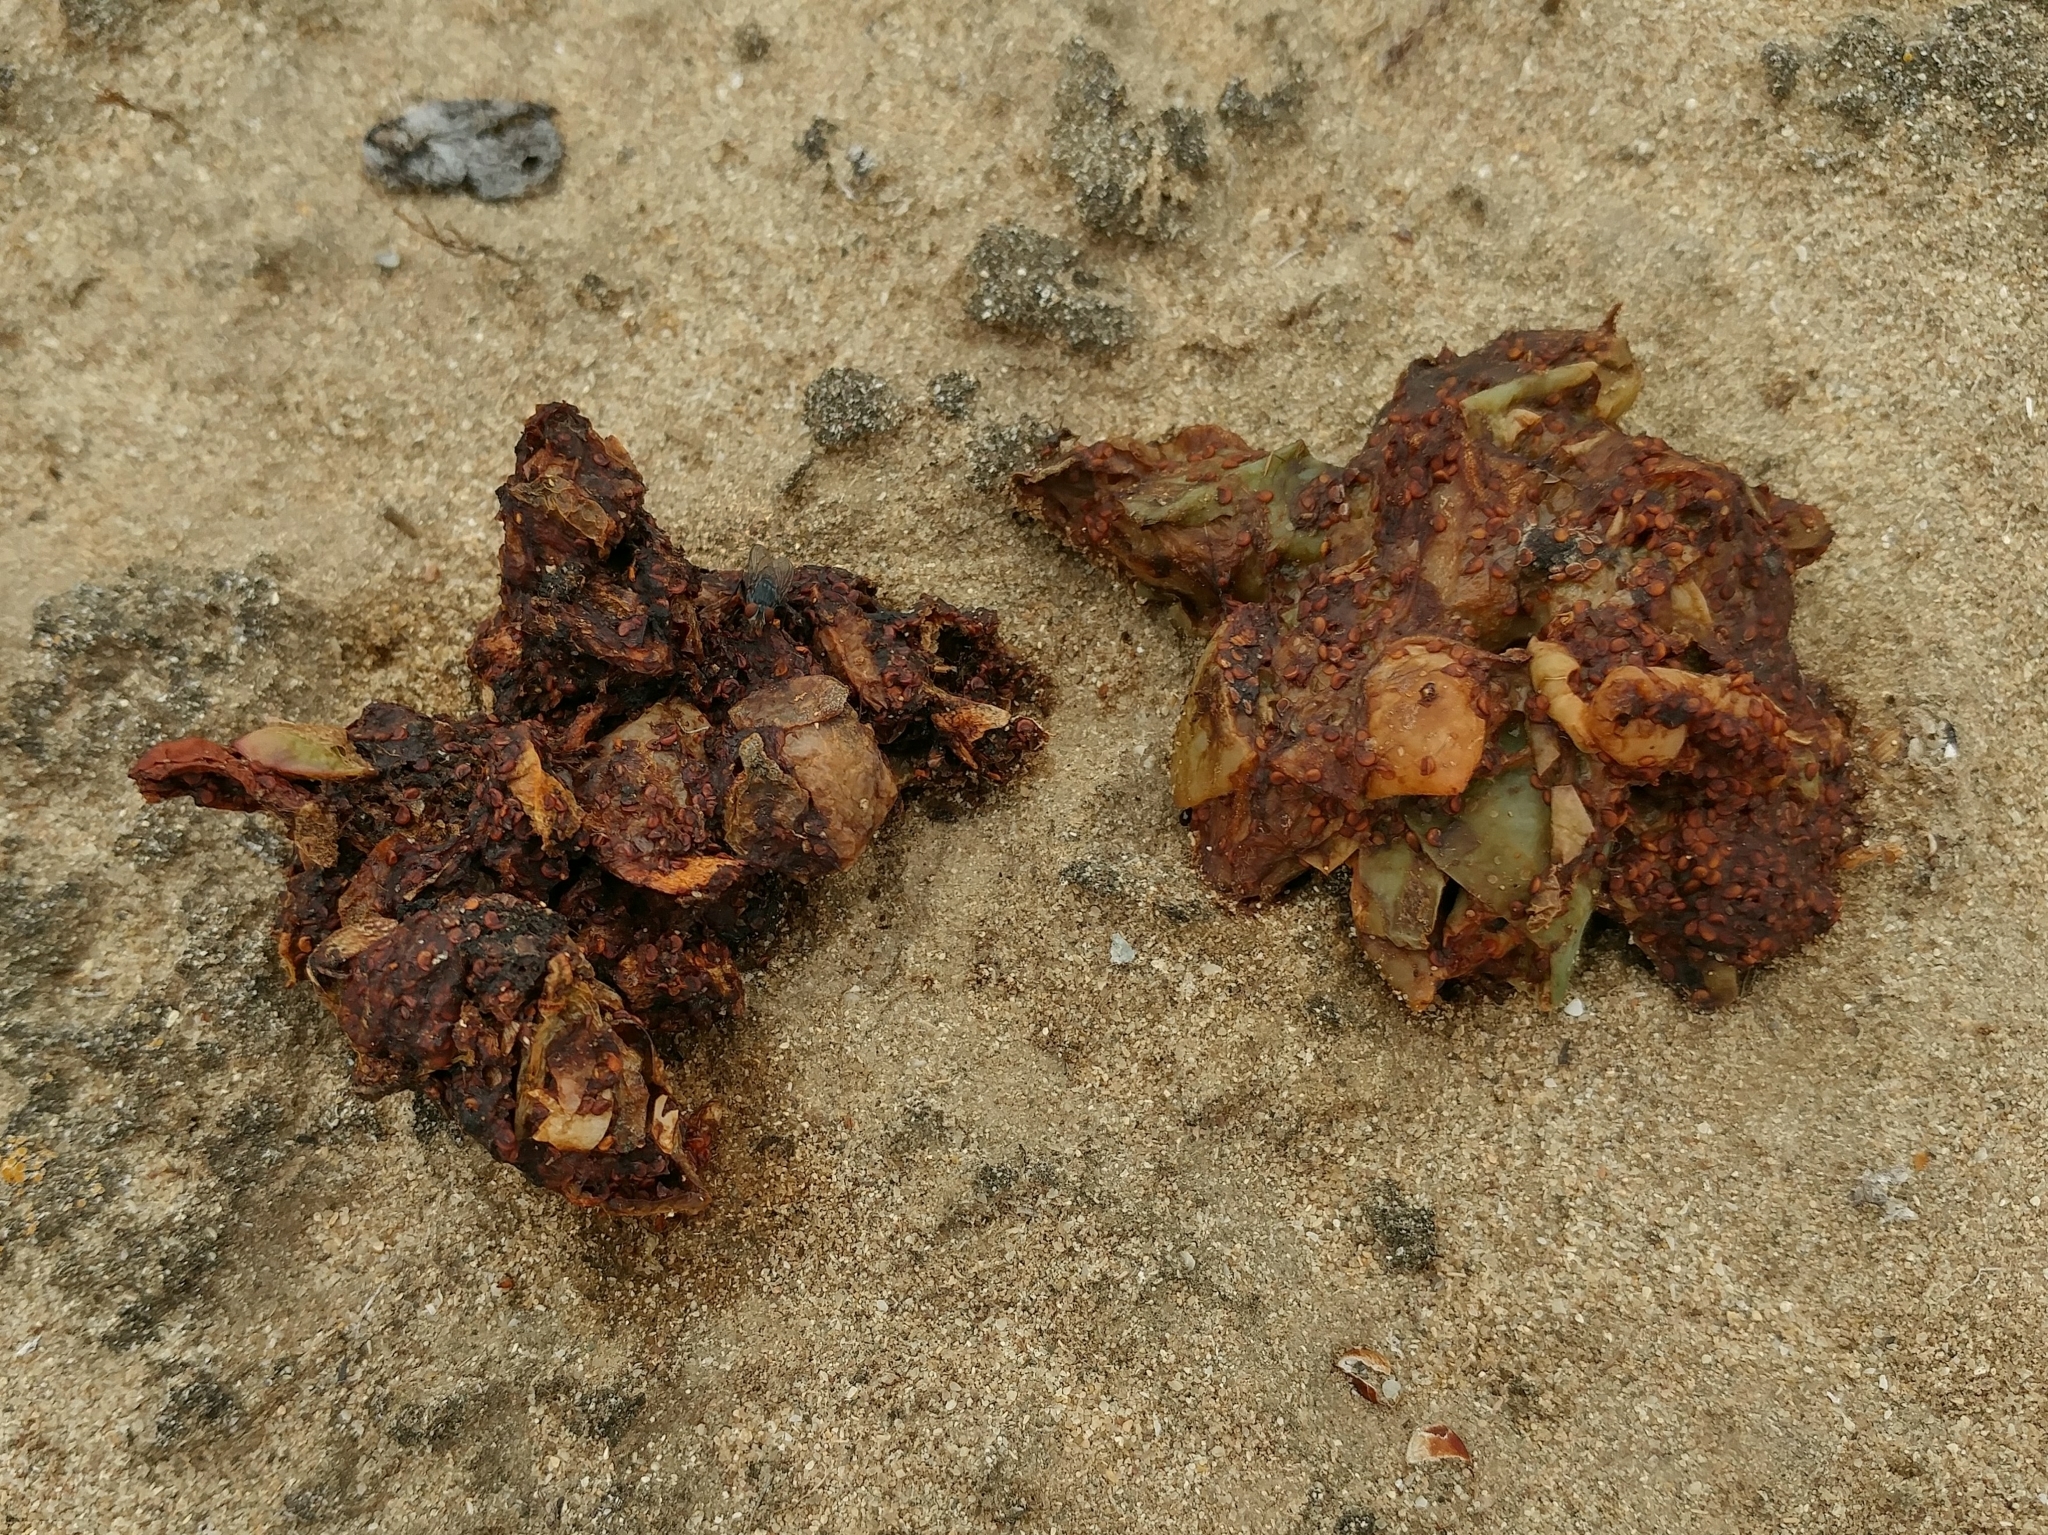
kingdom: Animalia
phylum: Chordata
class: Mammalia
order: Carnivora
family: Canidae
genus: Urocyon
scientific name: Urocyon littoralis
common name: Island gray fox
